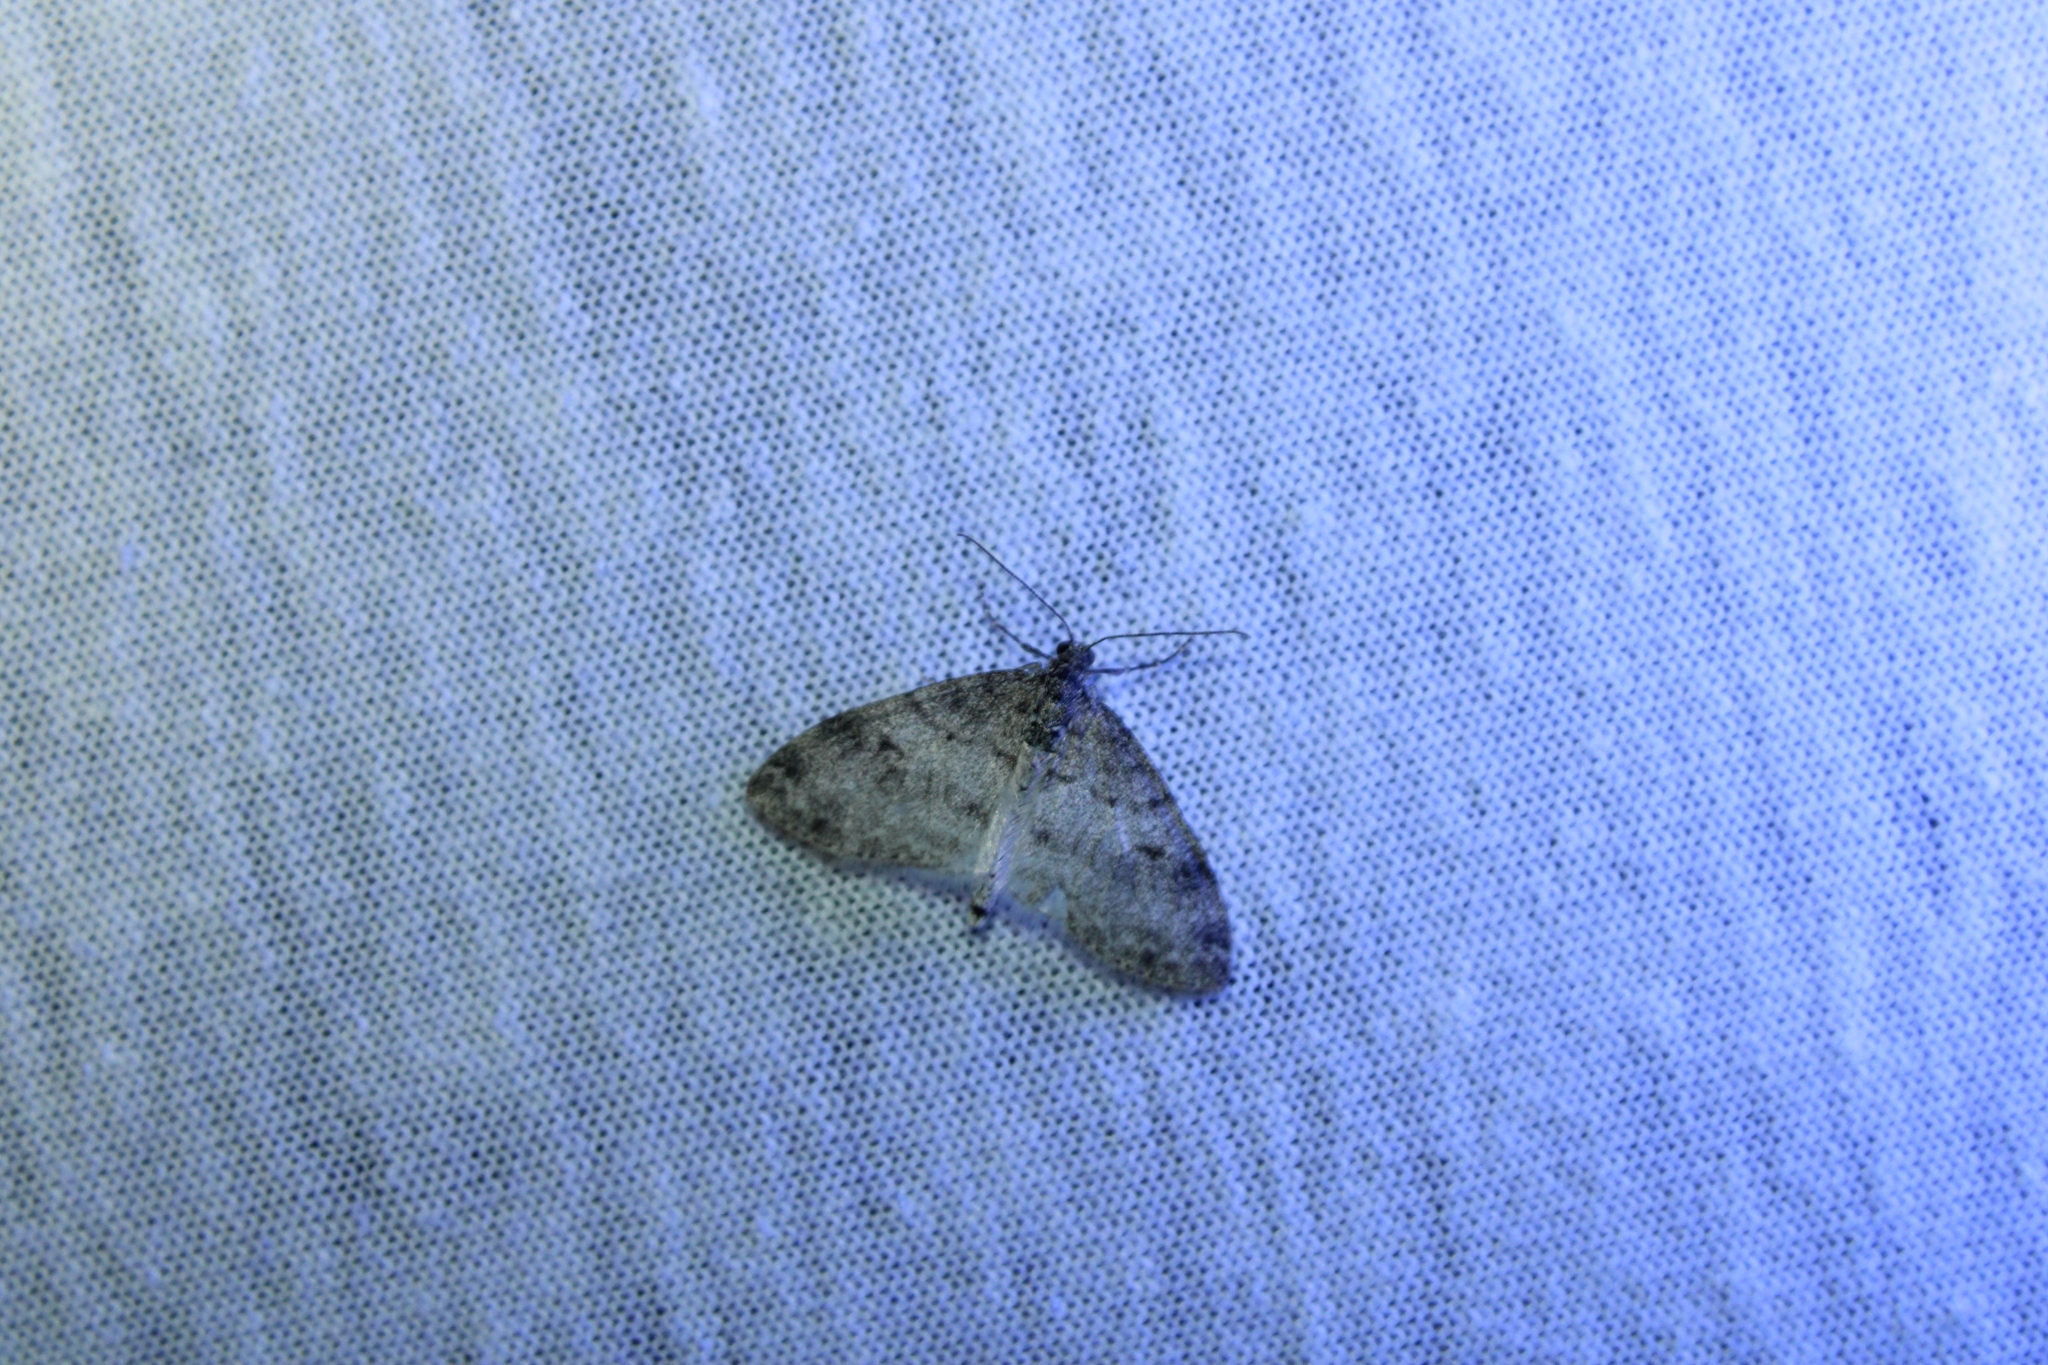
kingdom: Animalia
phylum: Arthropoda
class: Insecta
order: Lepidoptera
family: Geometridae
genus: Lobophora
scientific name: Lobophora nivigerata
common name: Powdered bigwing
